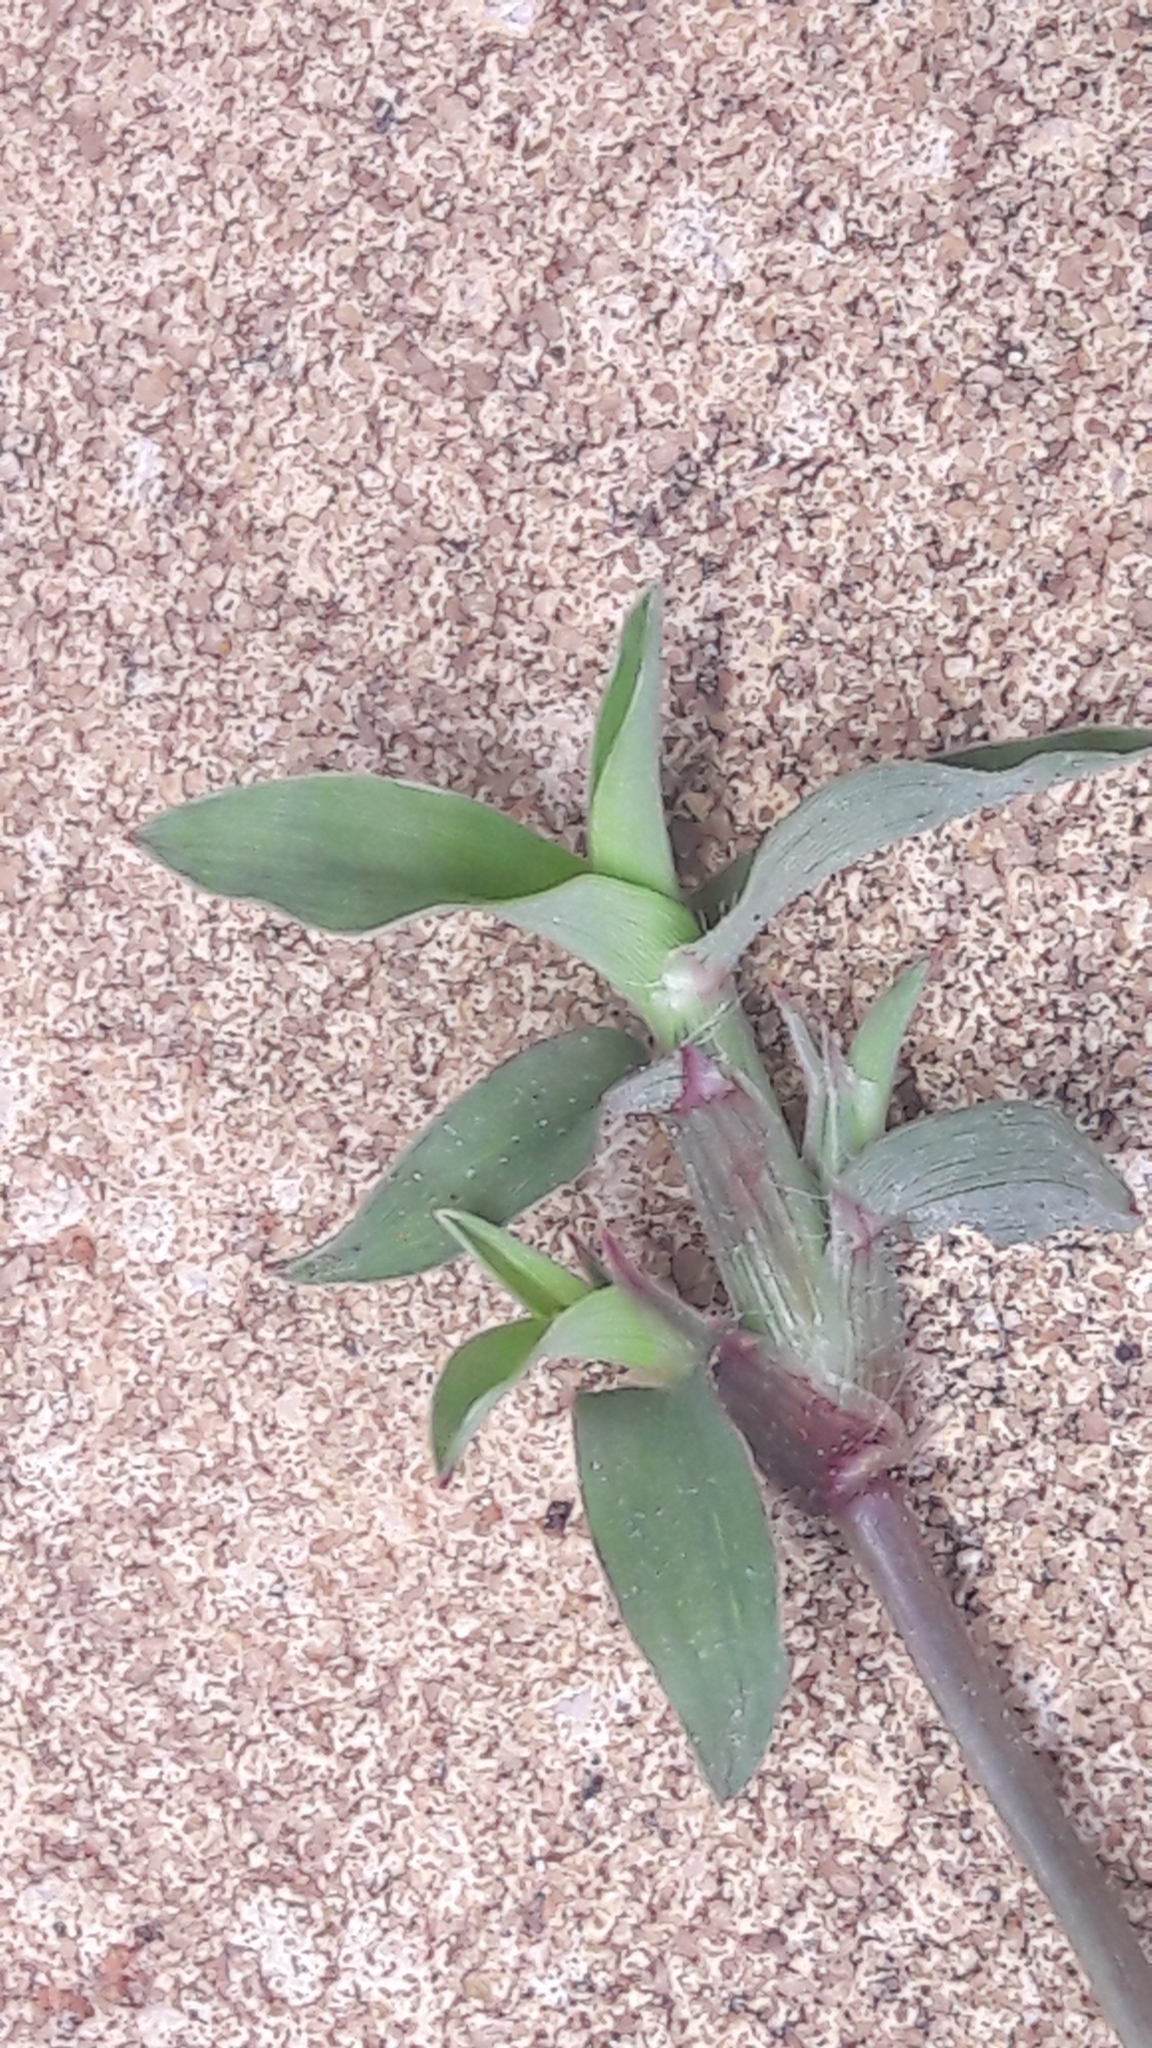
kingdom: Plantae
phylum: Tracheophyta
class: Liliopsida
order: Poales
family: Poaceae
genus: Dactyloctenium
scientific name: Dactyloctenium aegyptium
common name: Egyptian grass
